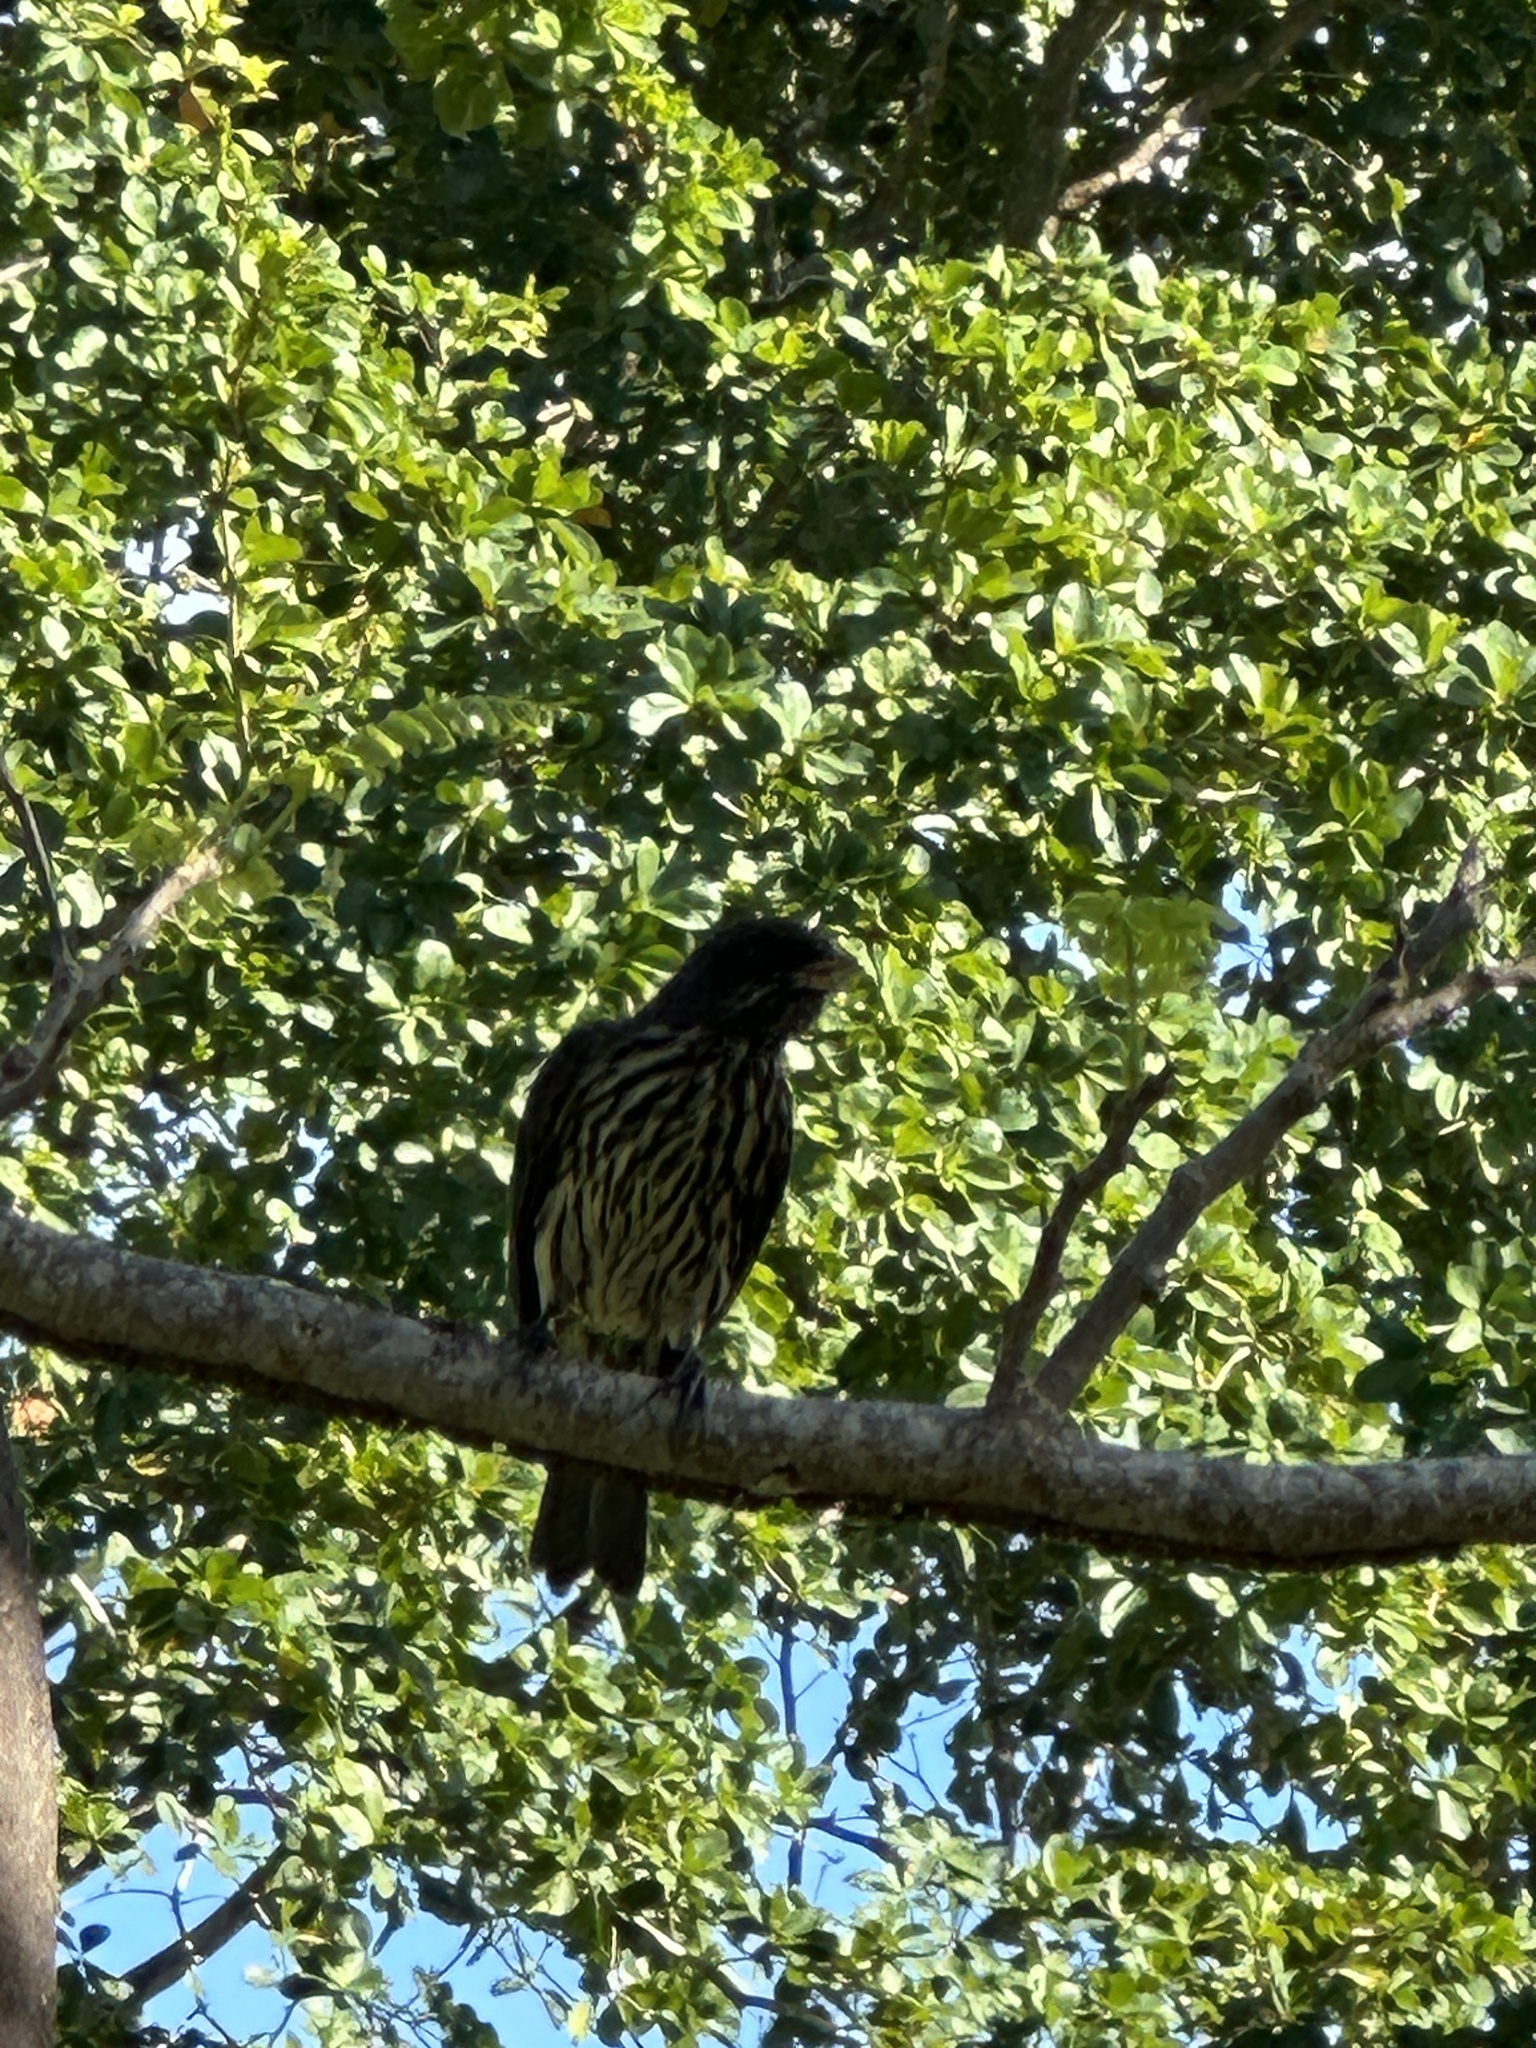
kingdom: Animalia
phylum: Chordata
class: Aves
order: Passeriformes
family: Dulidae
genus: Dulus
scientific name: Dulus dominicus
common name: Palmchat
